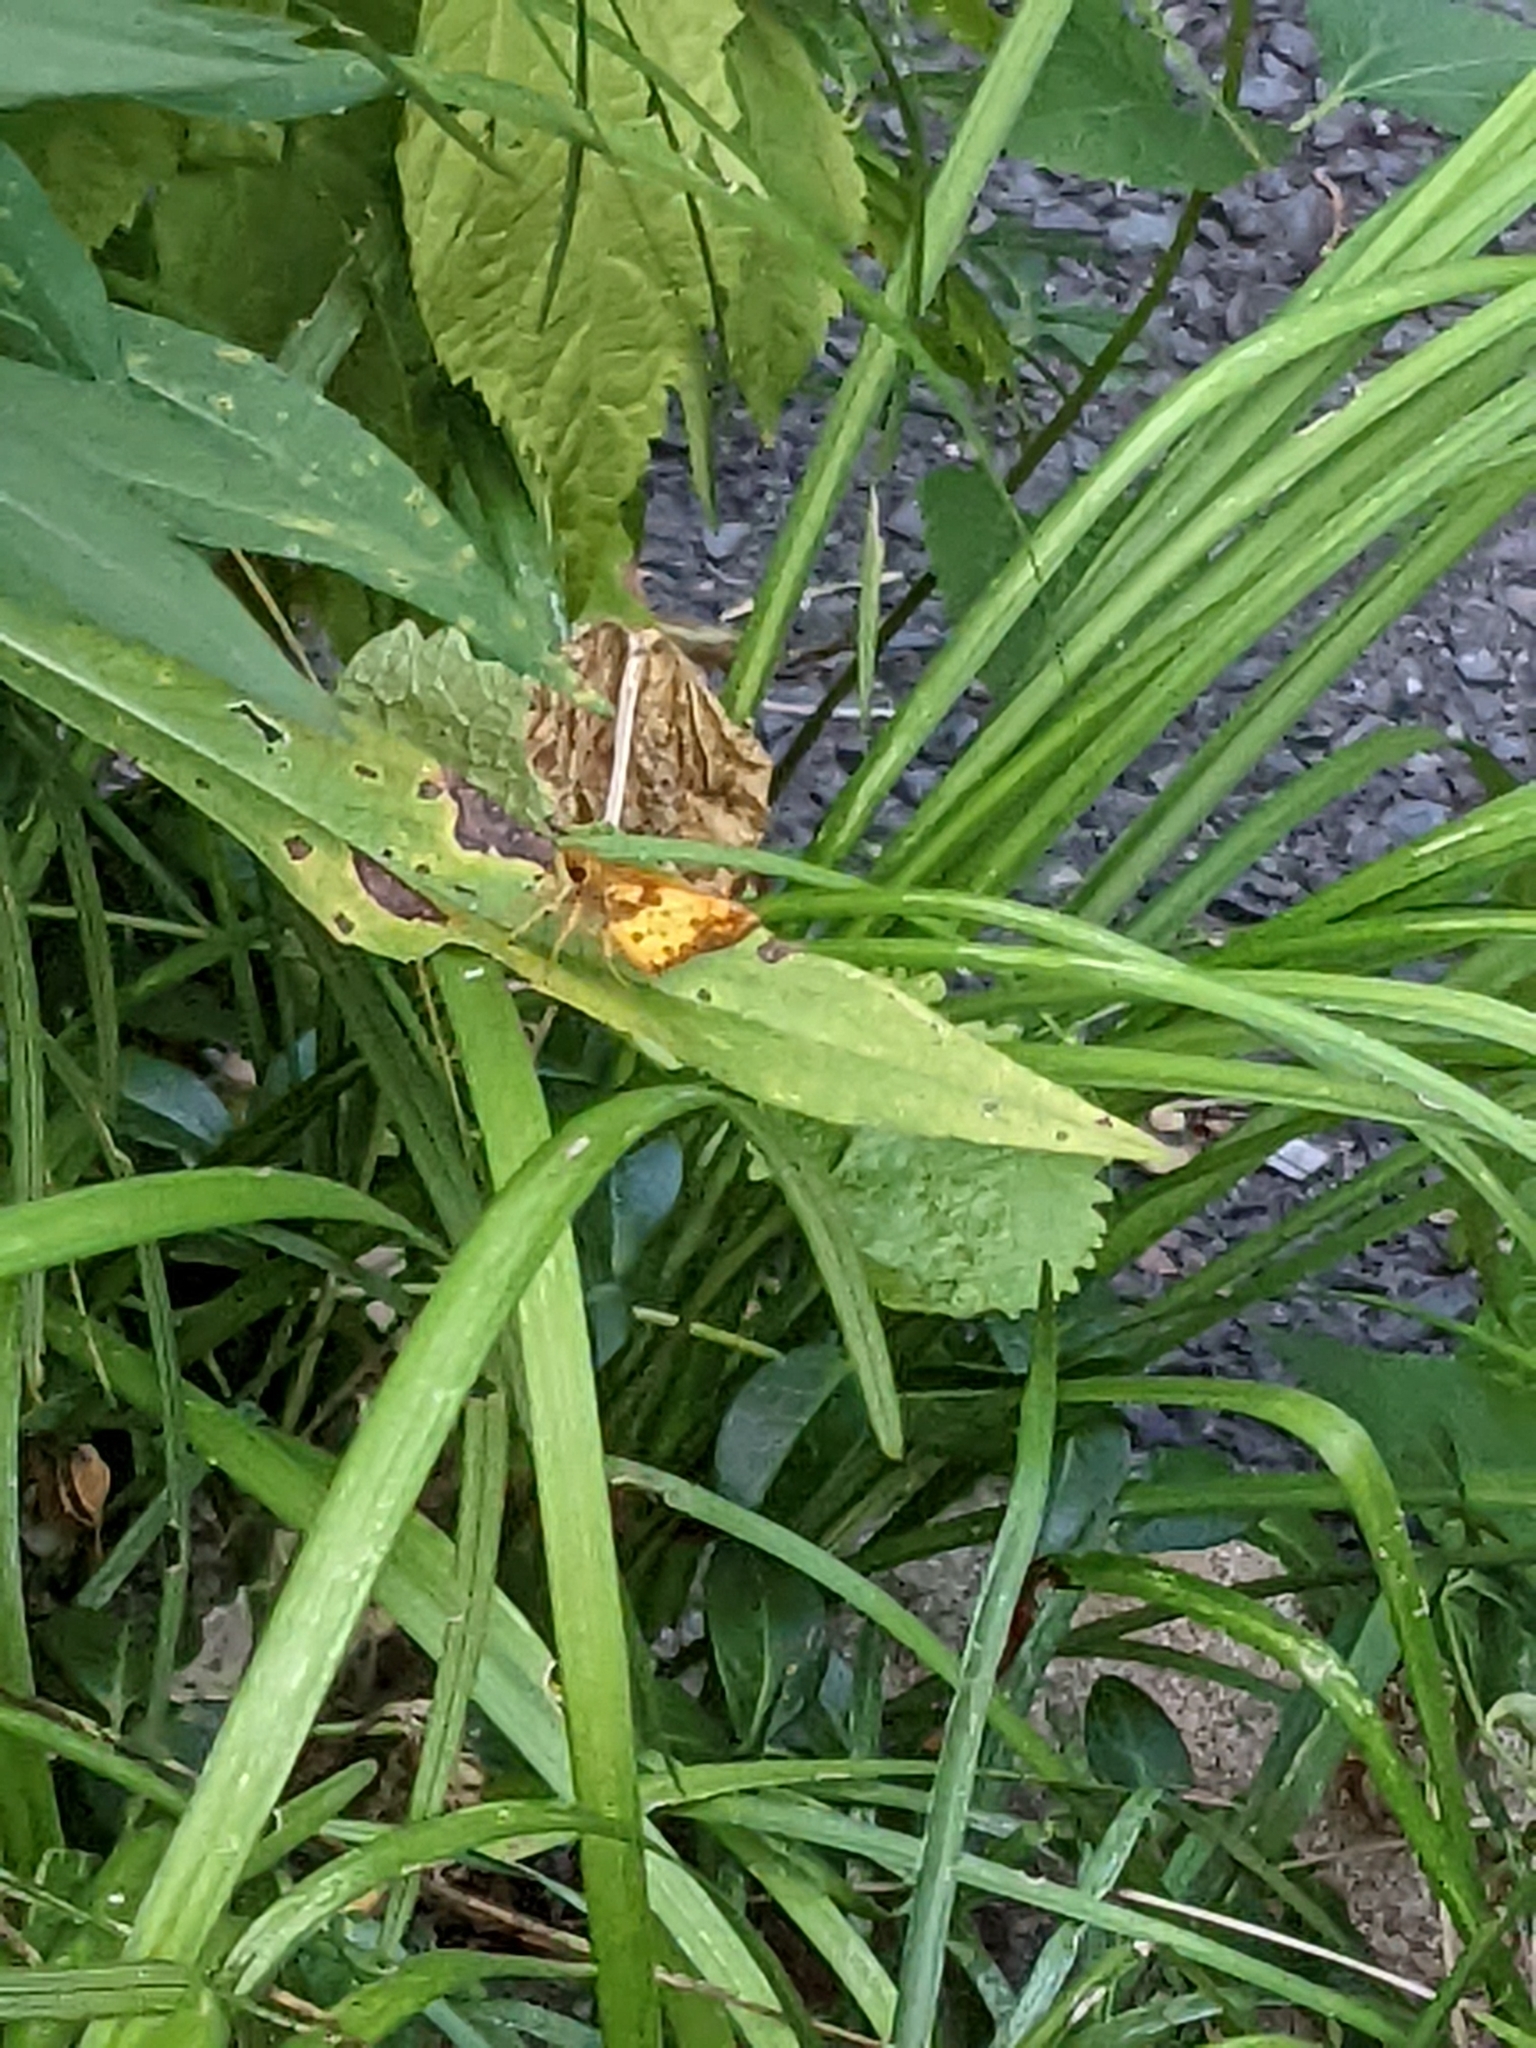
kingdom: Animalia
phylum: Arthropoda
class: Insecta
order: Lepidoptera
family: Hesperiidae
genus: Lon
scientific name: Lon zabulon
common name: Zabulon skipper
